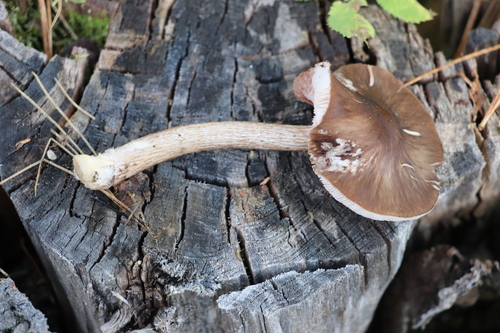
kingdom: Fungi
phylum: Basidiomycota
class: Agaricomycetes
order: Agaricales
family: Pluteaceae
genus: Pluteus
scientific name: Pluteus
